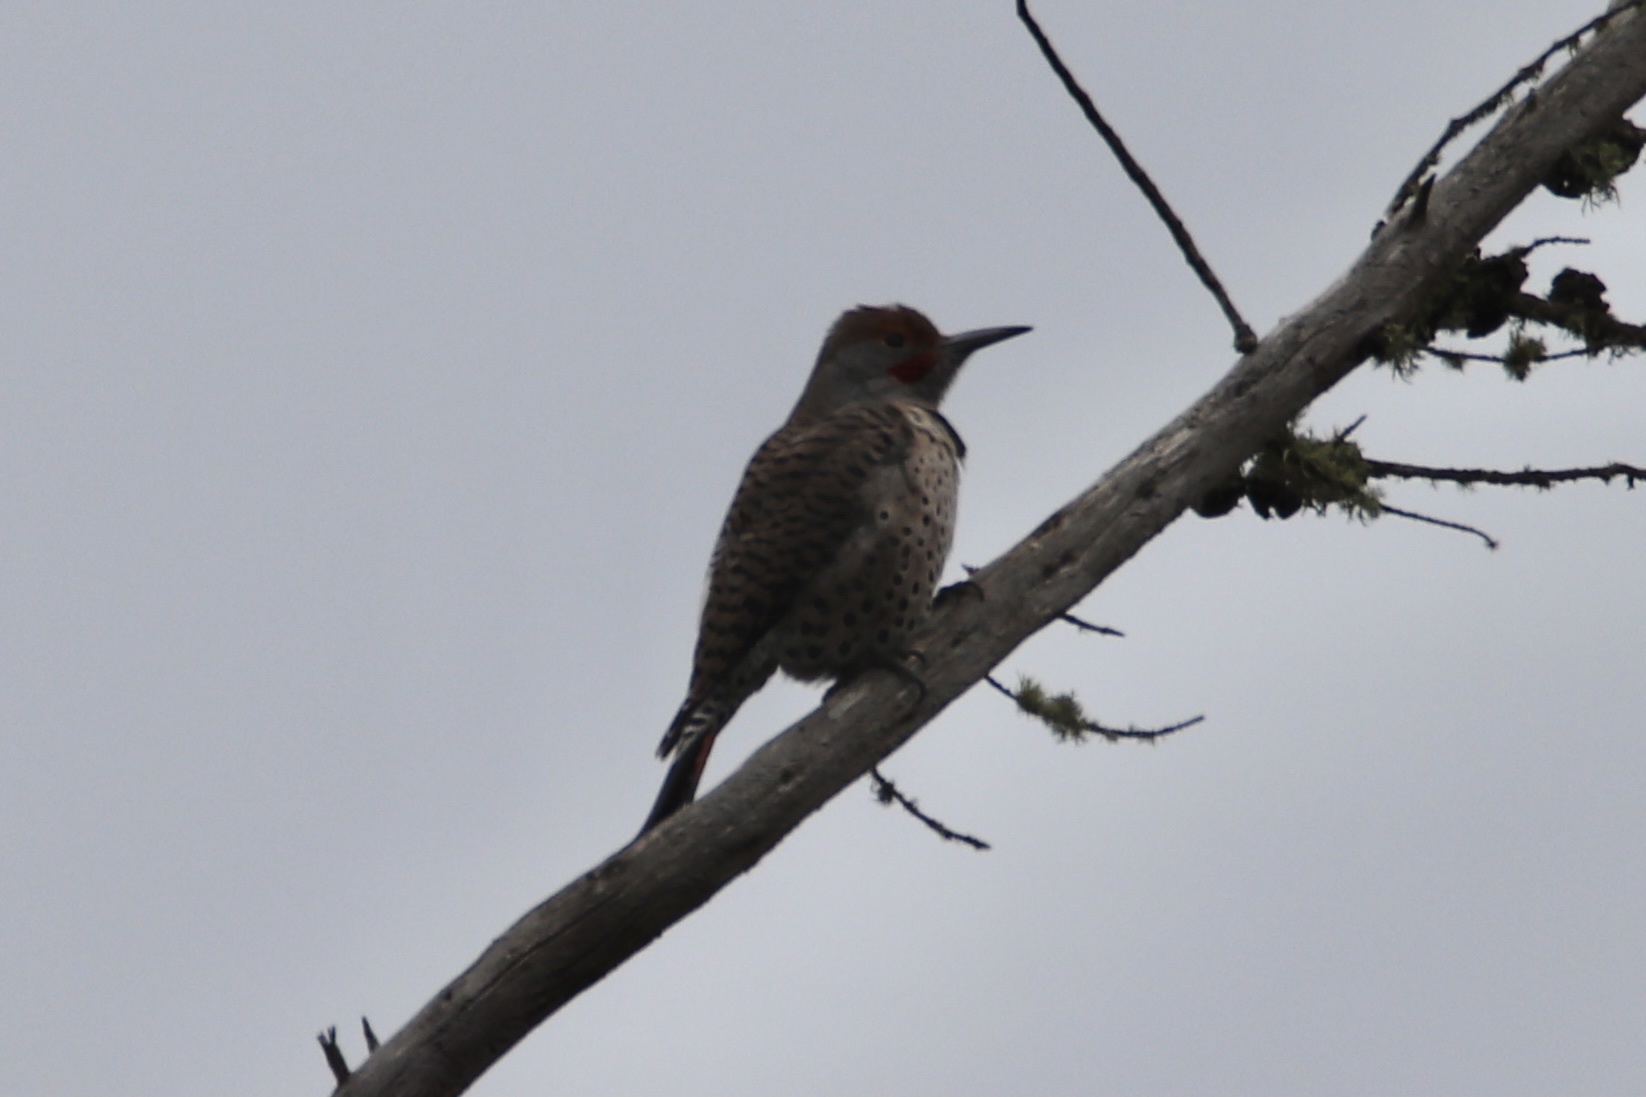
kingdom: Animalia
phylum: Chordata
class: Aves
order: Piciformes
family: Picidae
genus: Colaptes
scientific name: Colaptes auratus
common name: Northern flicker
